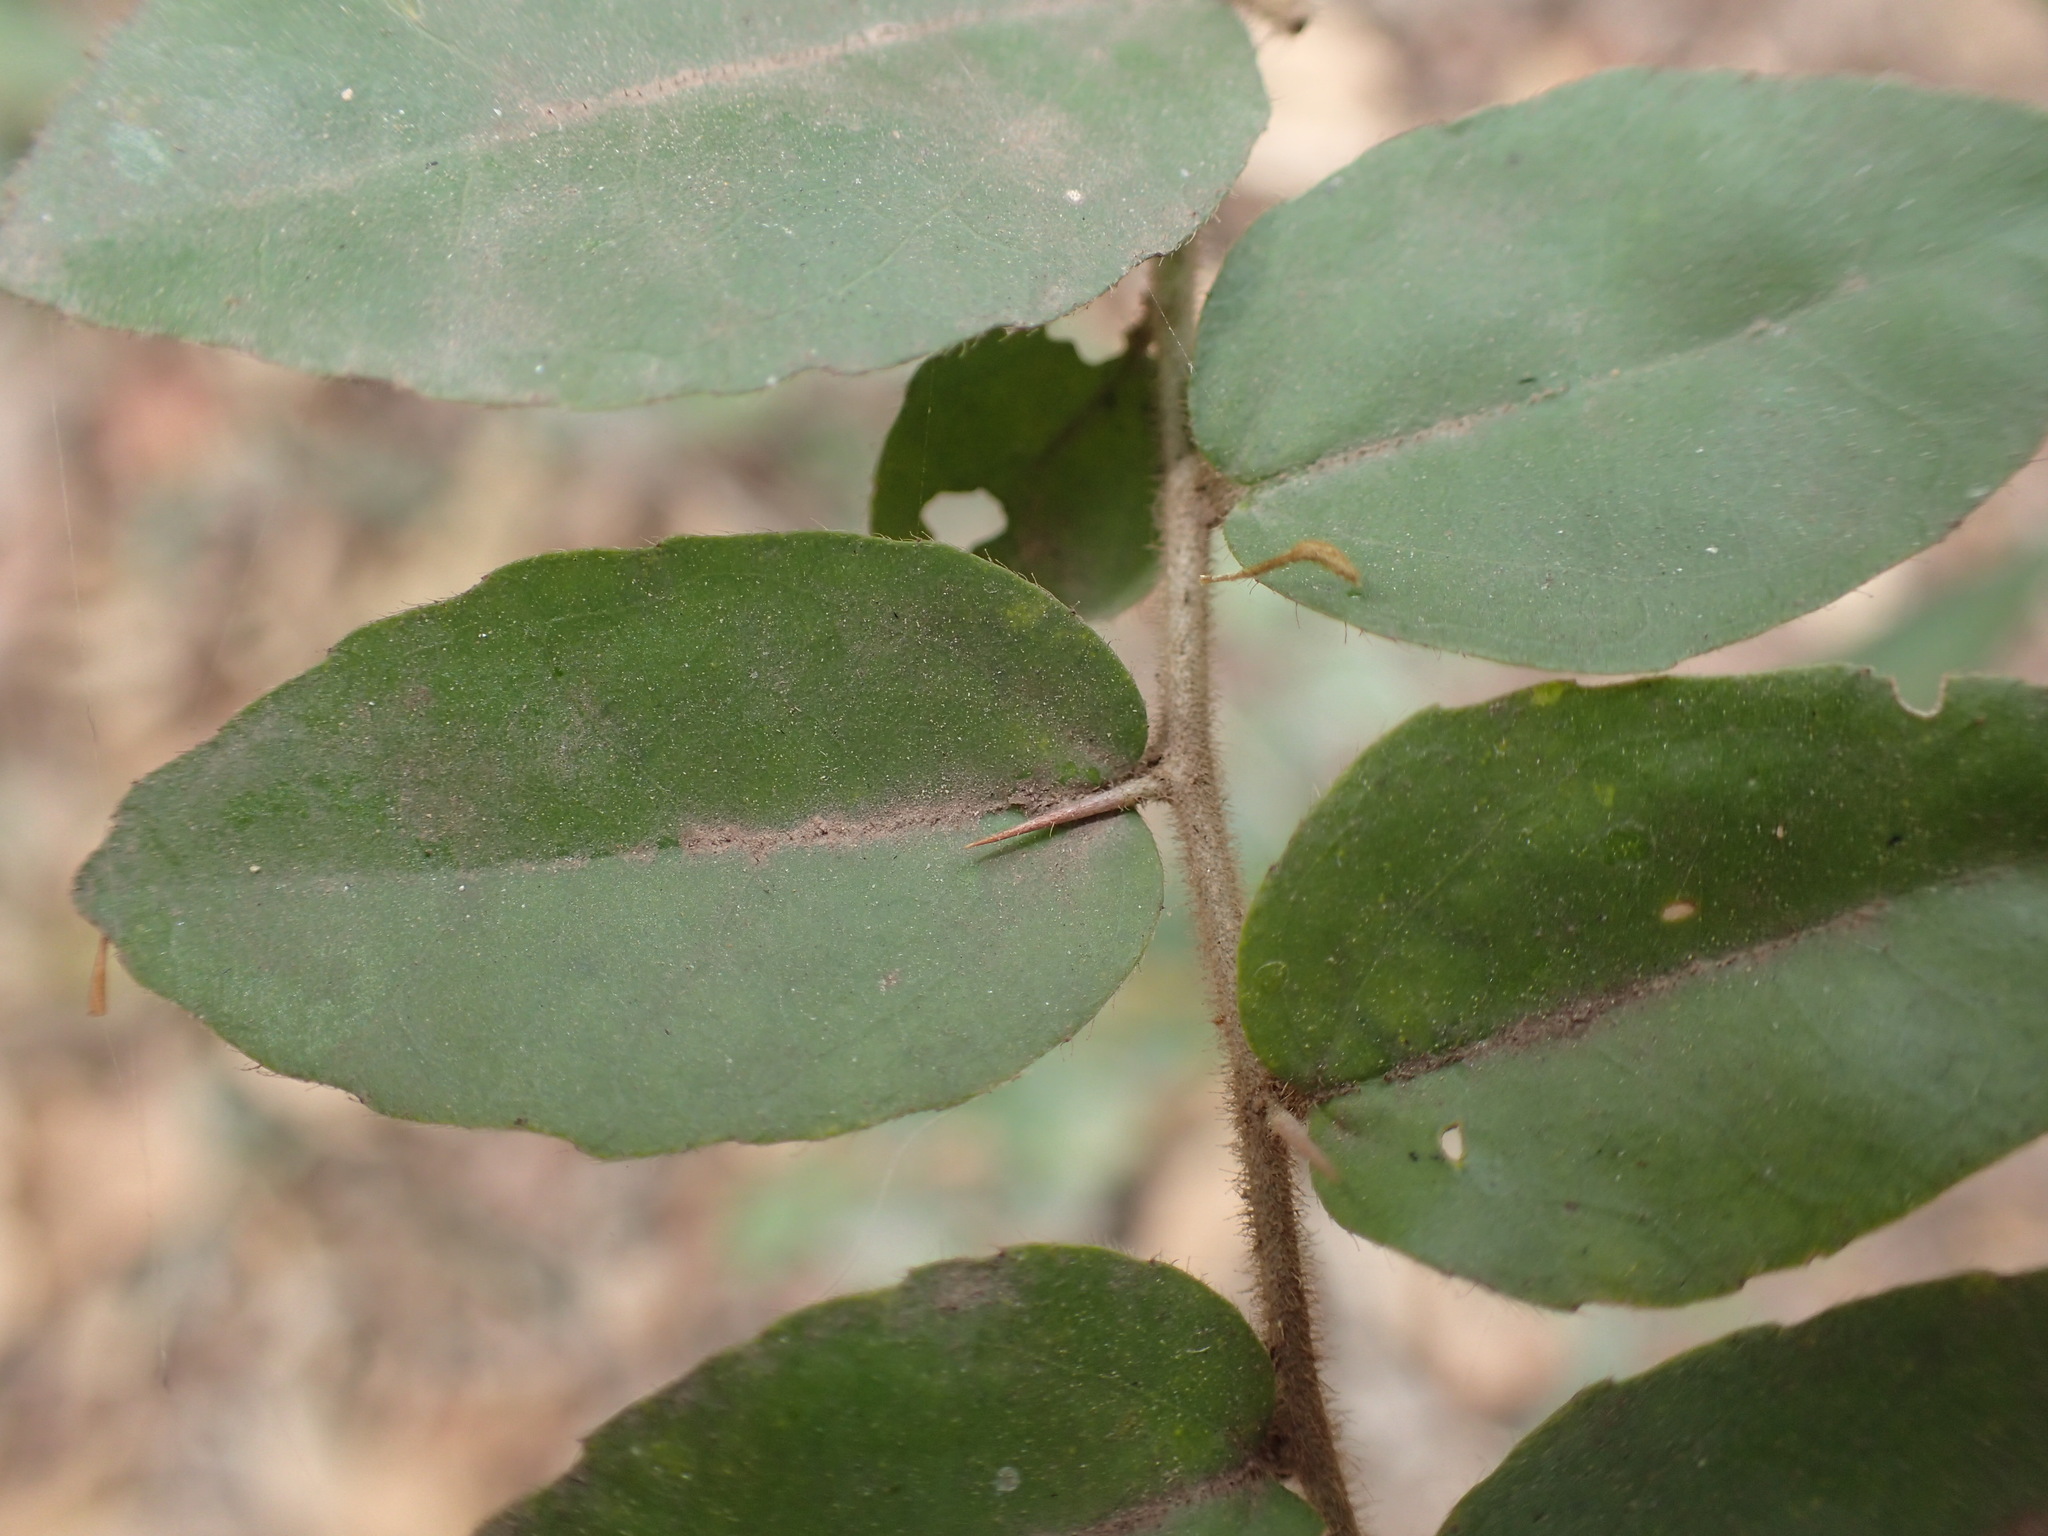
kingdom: Plantae
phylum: Tracheophyta
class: Magnoliopsida
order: Malpighiales
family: Salicaceae
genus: Dovyalis
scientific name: Dovyalis rhamnoides
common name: Sourberry
